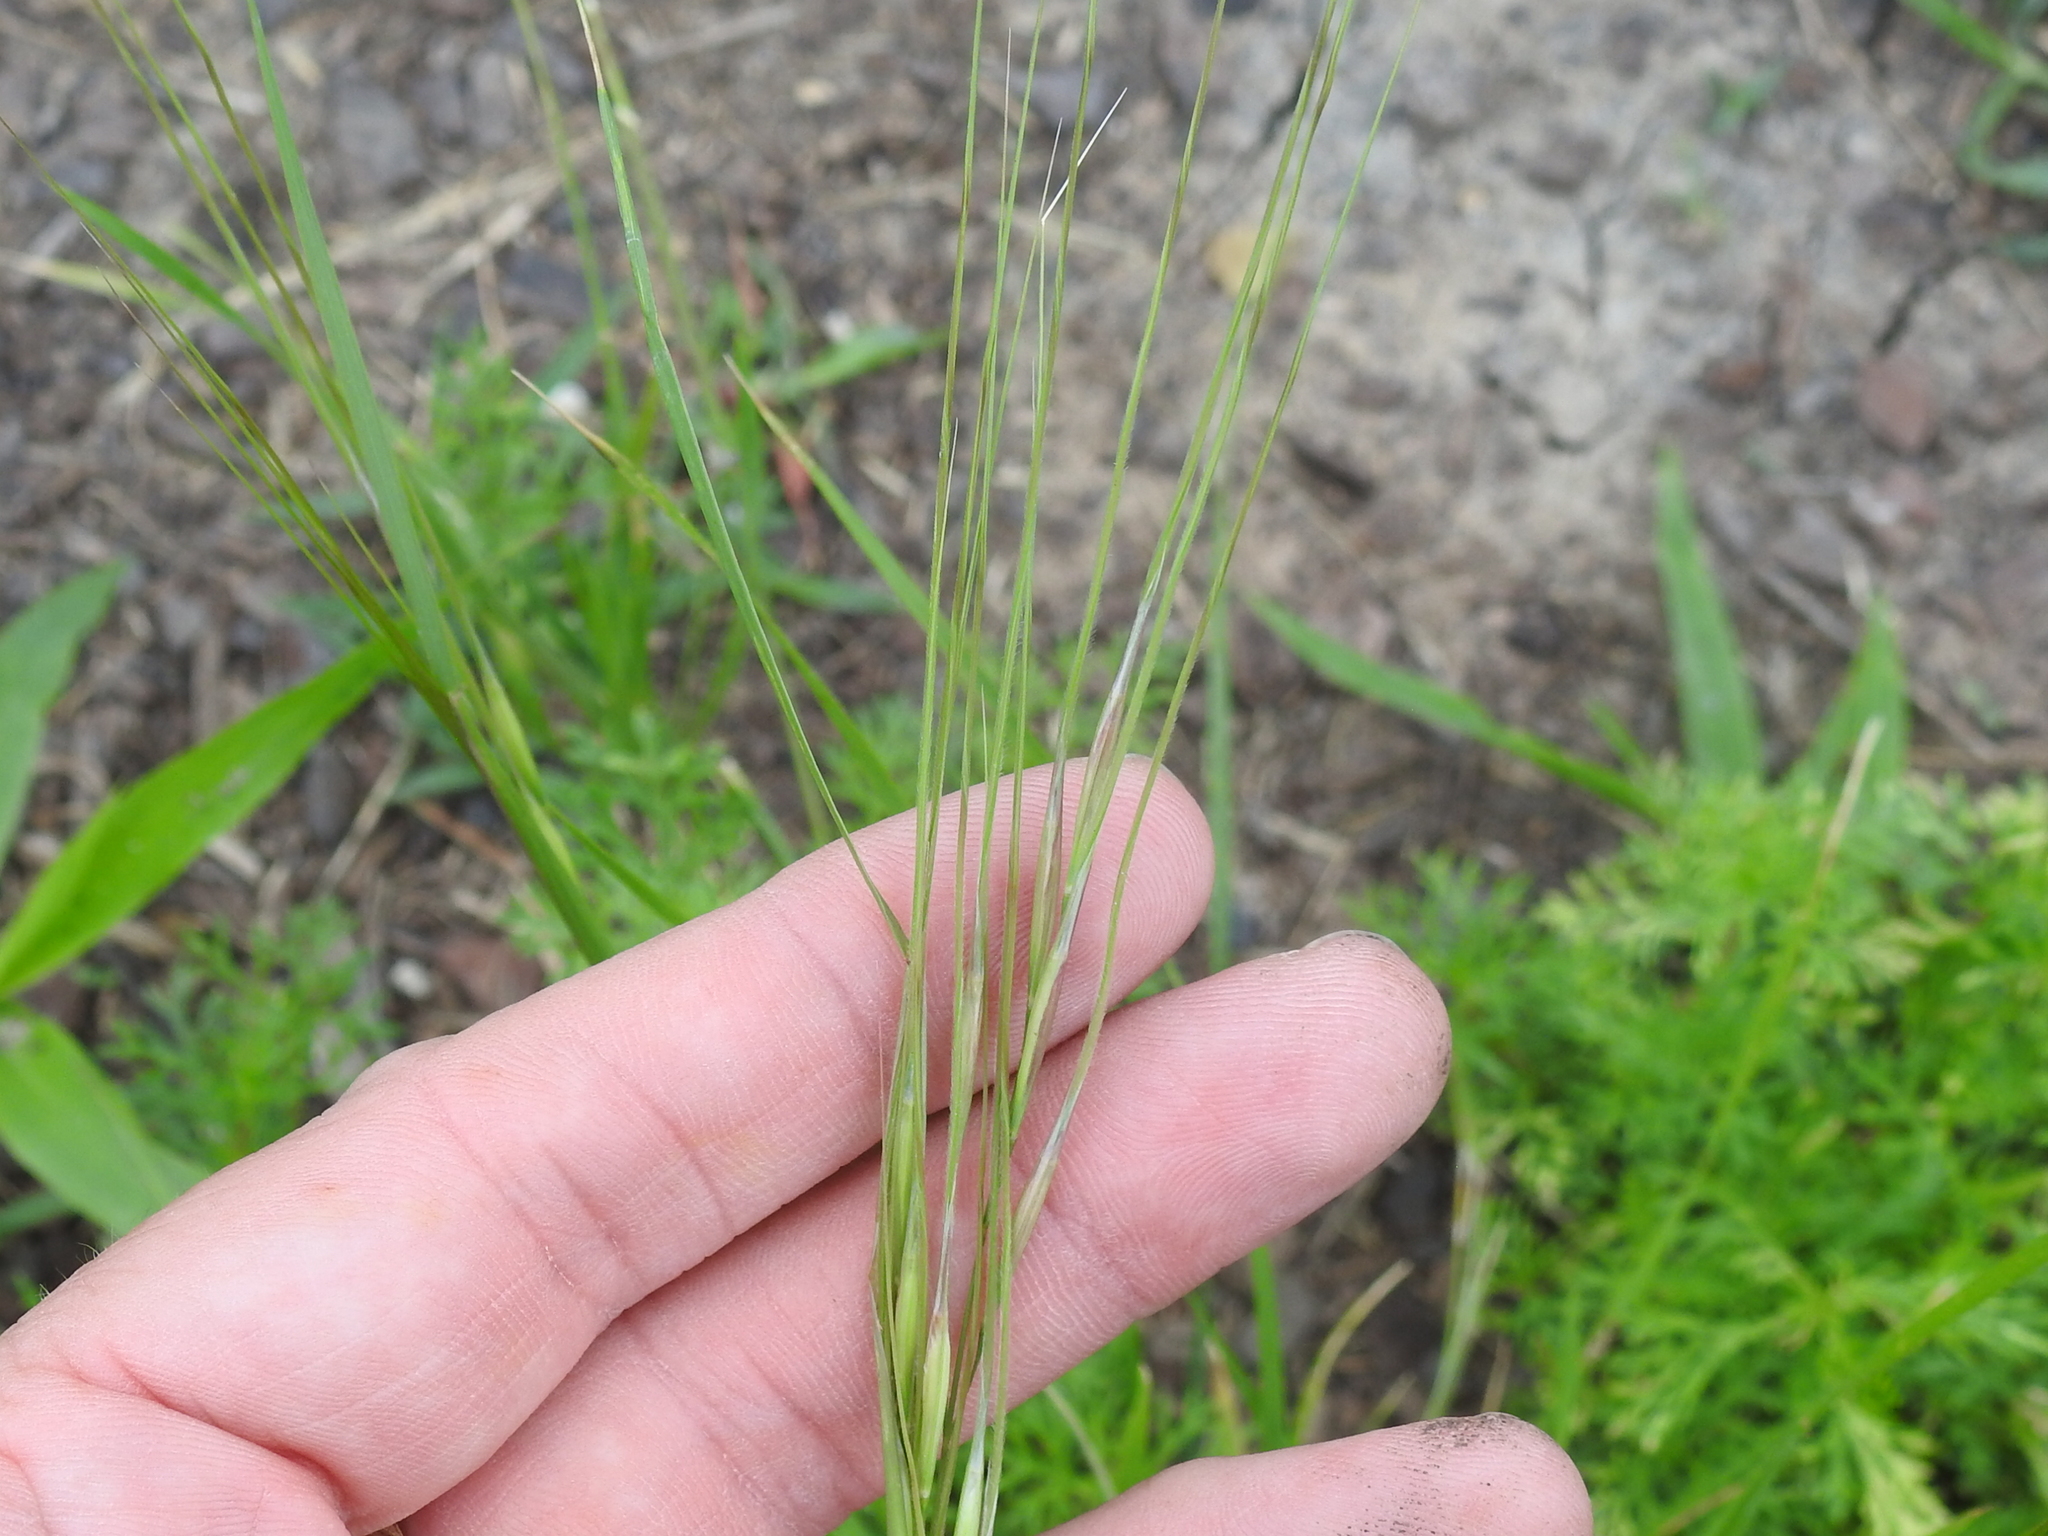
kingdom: Plantae
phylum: Tracheophyta
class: Liliopsida
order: Poales
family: Poaceae
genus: Nassella
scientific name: Nassella leucotricha
